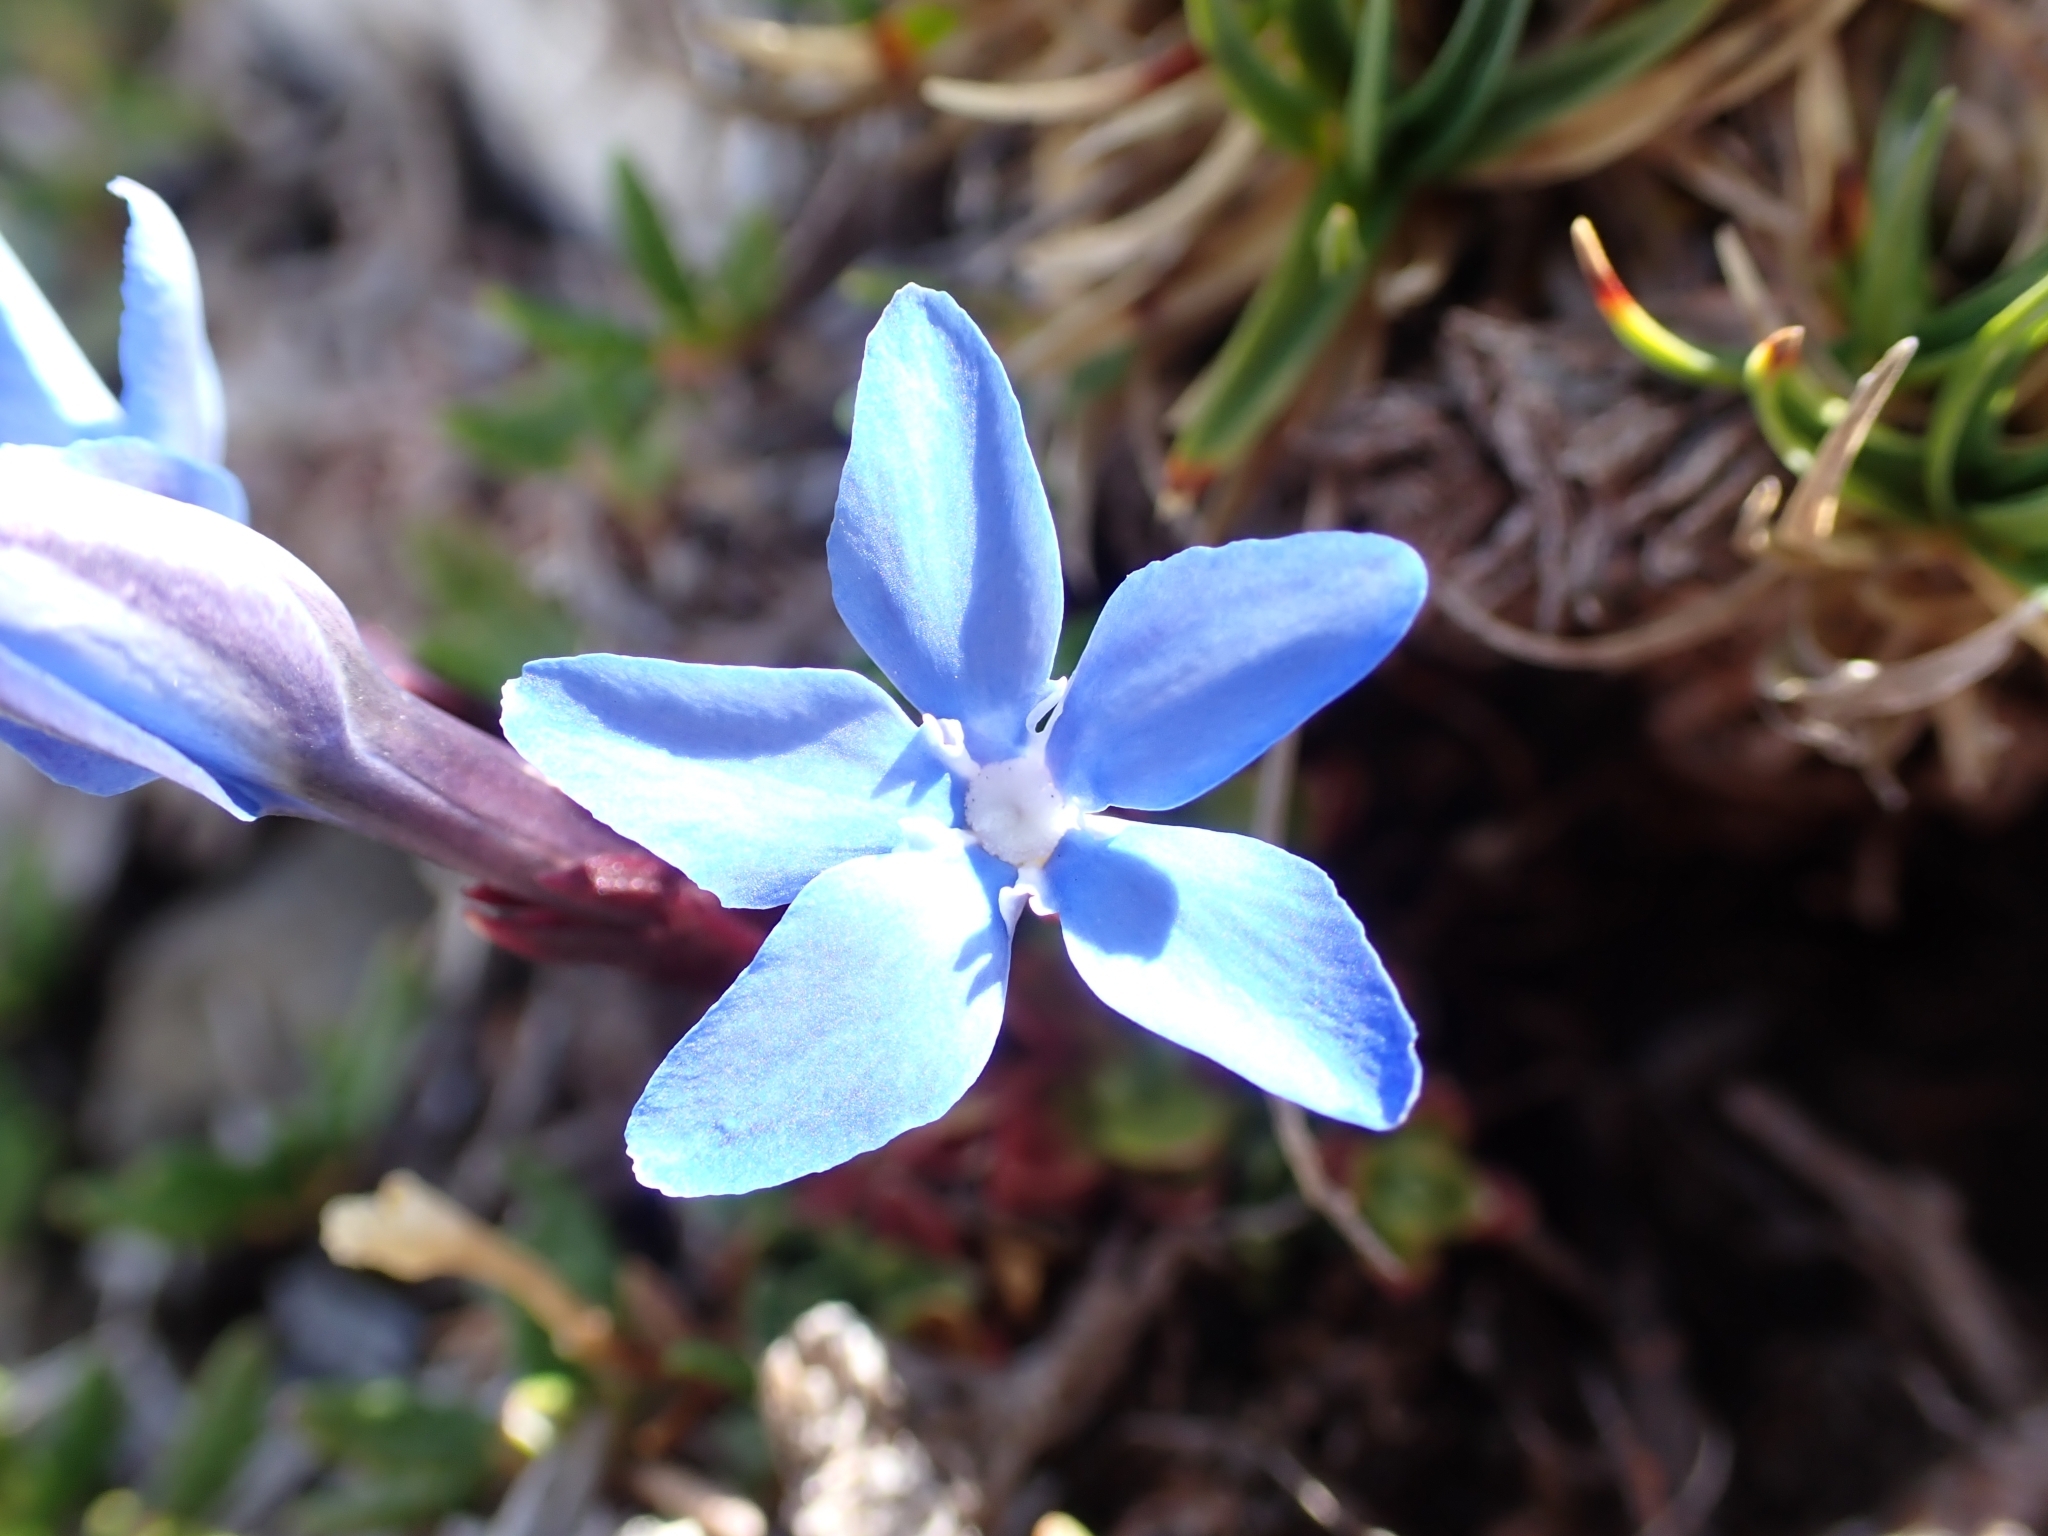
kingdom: Plantae
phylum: Tracheophyta
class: Magnoliopsida
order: Gentianales
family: Gentianaceae
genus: Gentiana
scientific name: Gentiana orbicularis
